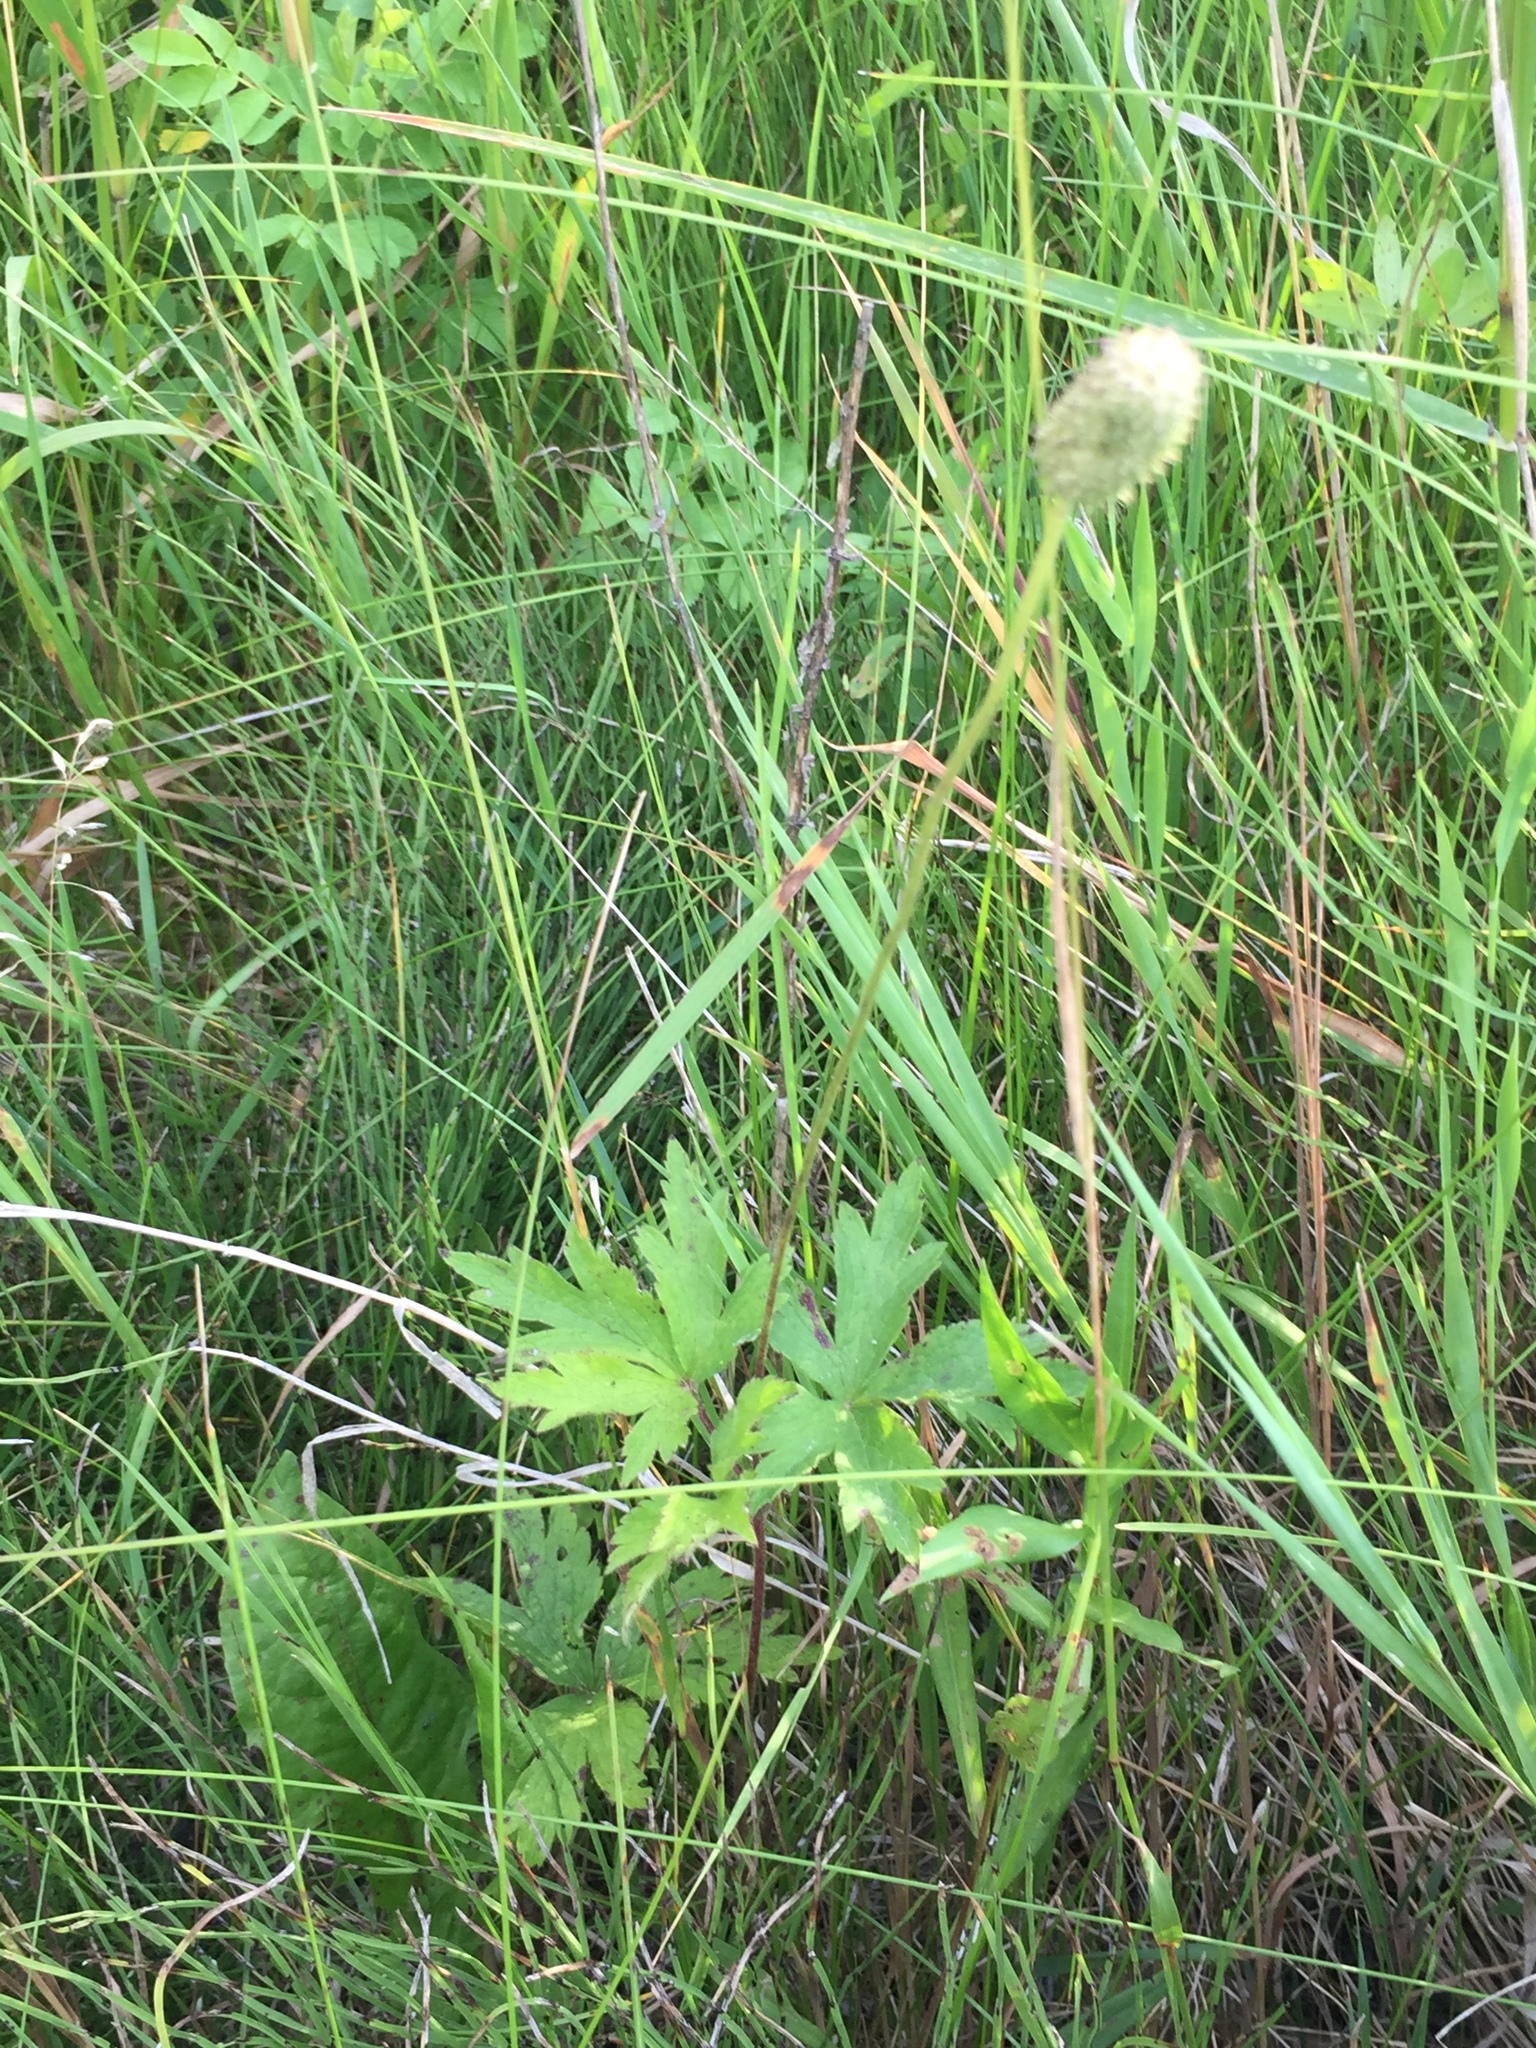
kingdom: Plantae
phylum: Tracheophyta
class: Magnoliopsida
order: Ranunculales
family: Ranunculaceae
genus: Anemone
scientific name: Anemone cylindrica
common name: Candle anemone
